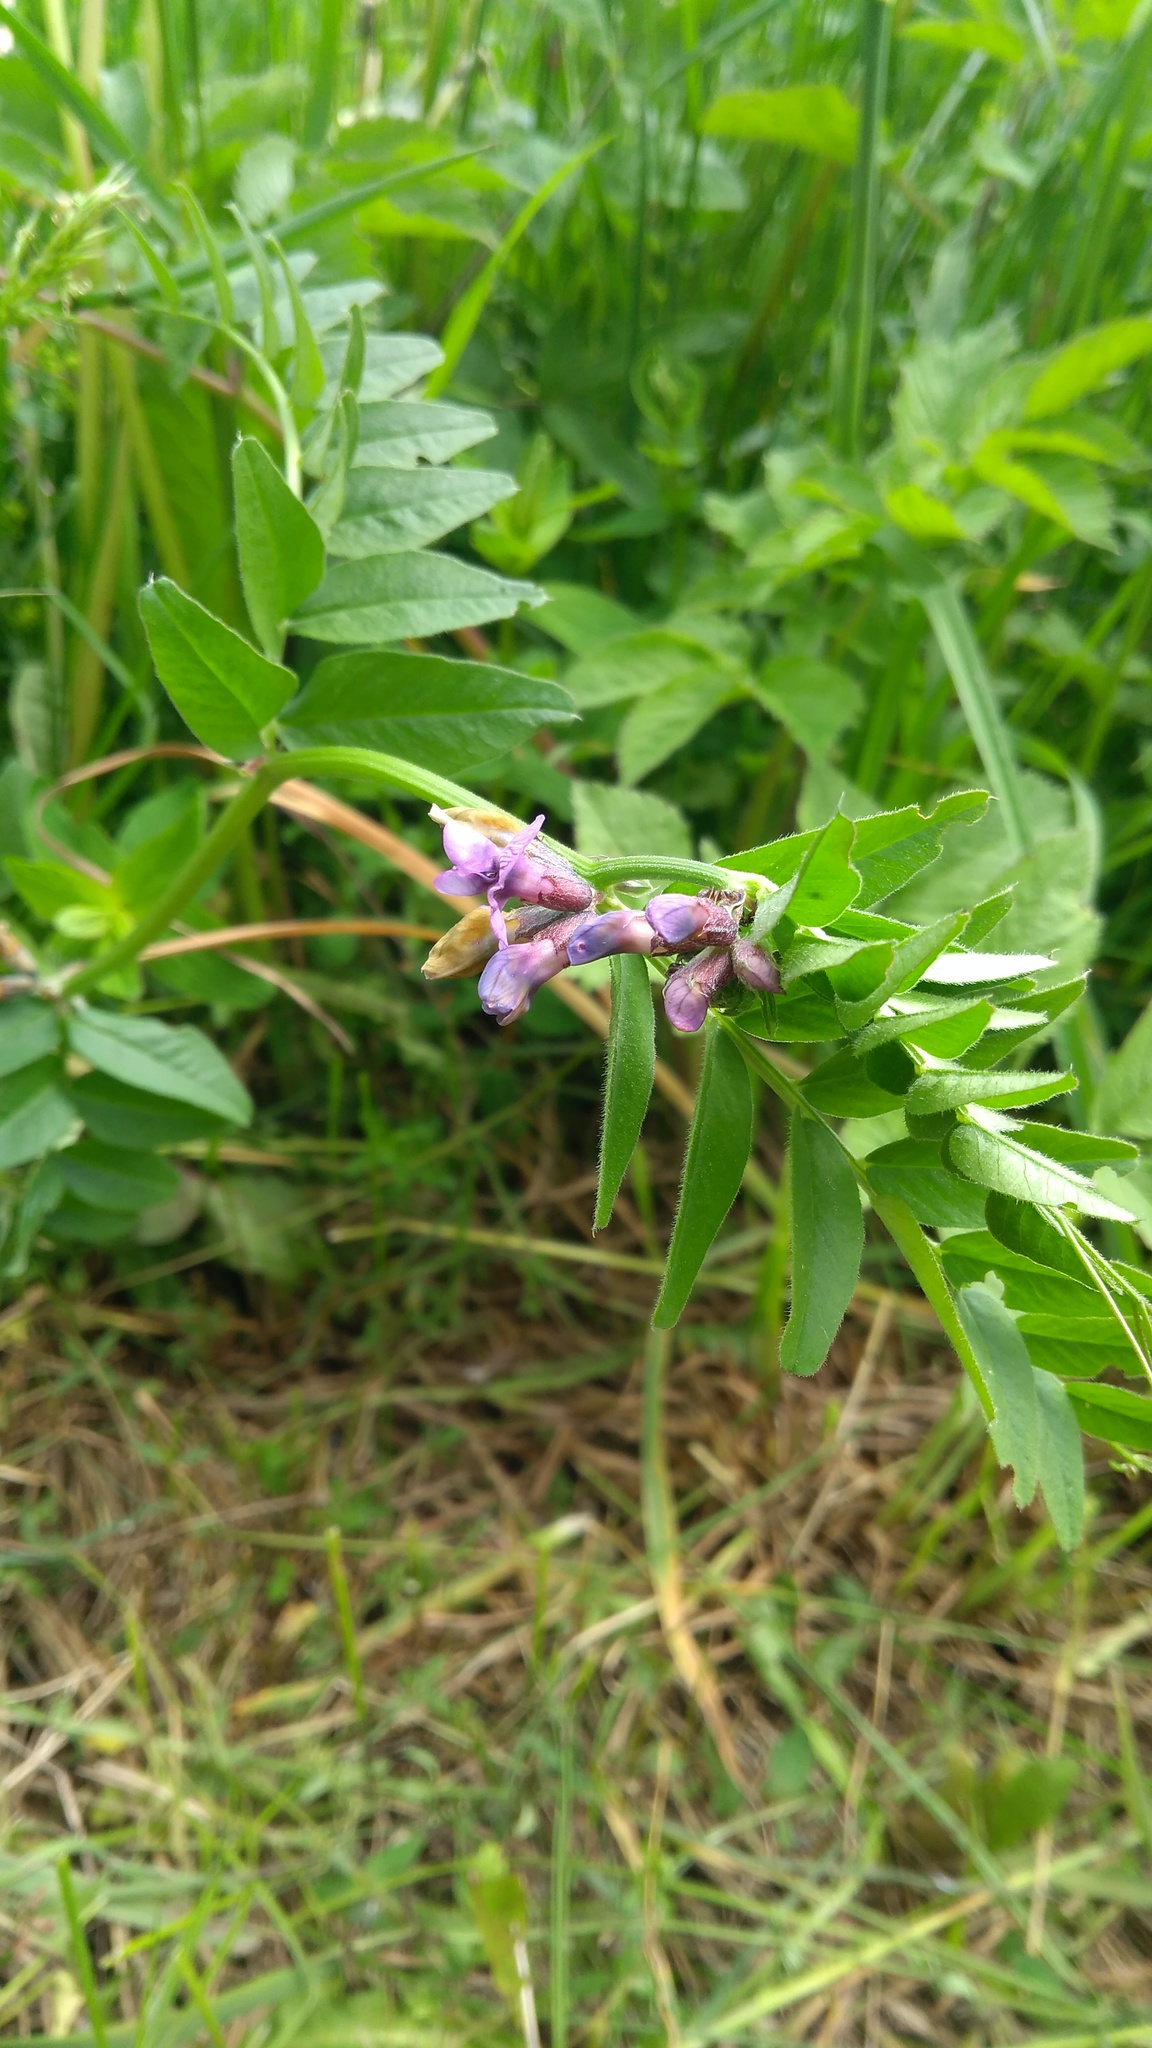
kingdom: Plantae
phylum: Tracheophyta
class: Magnoliopsida
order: Fabales
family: Fabaceae
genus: Vicia
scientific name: Vicia sepium
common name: Bush vetch
